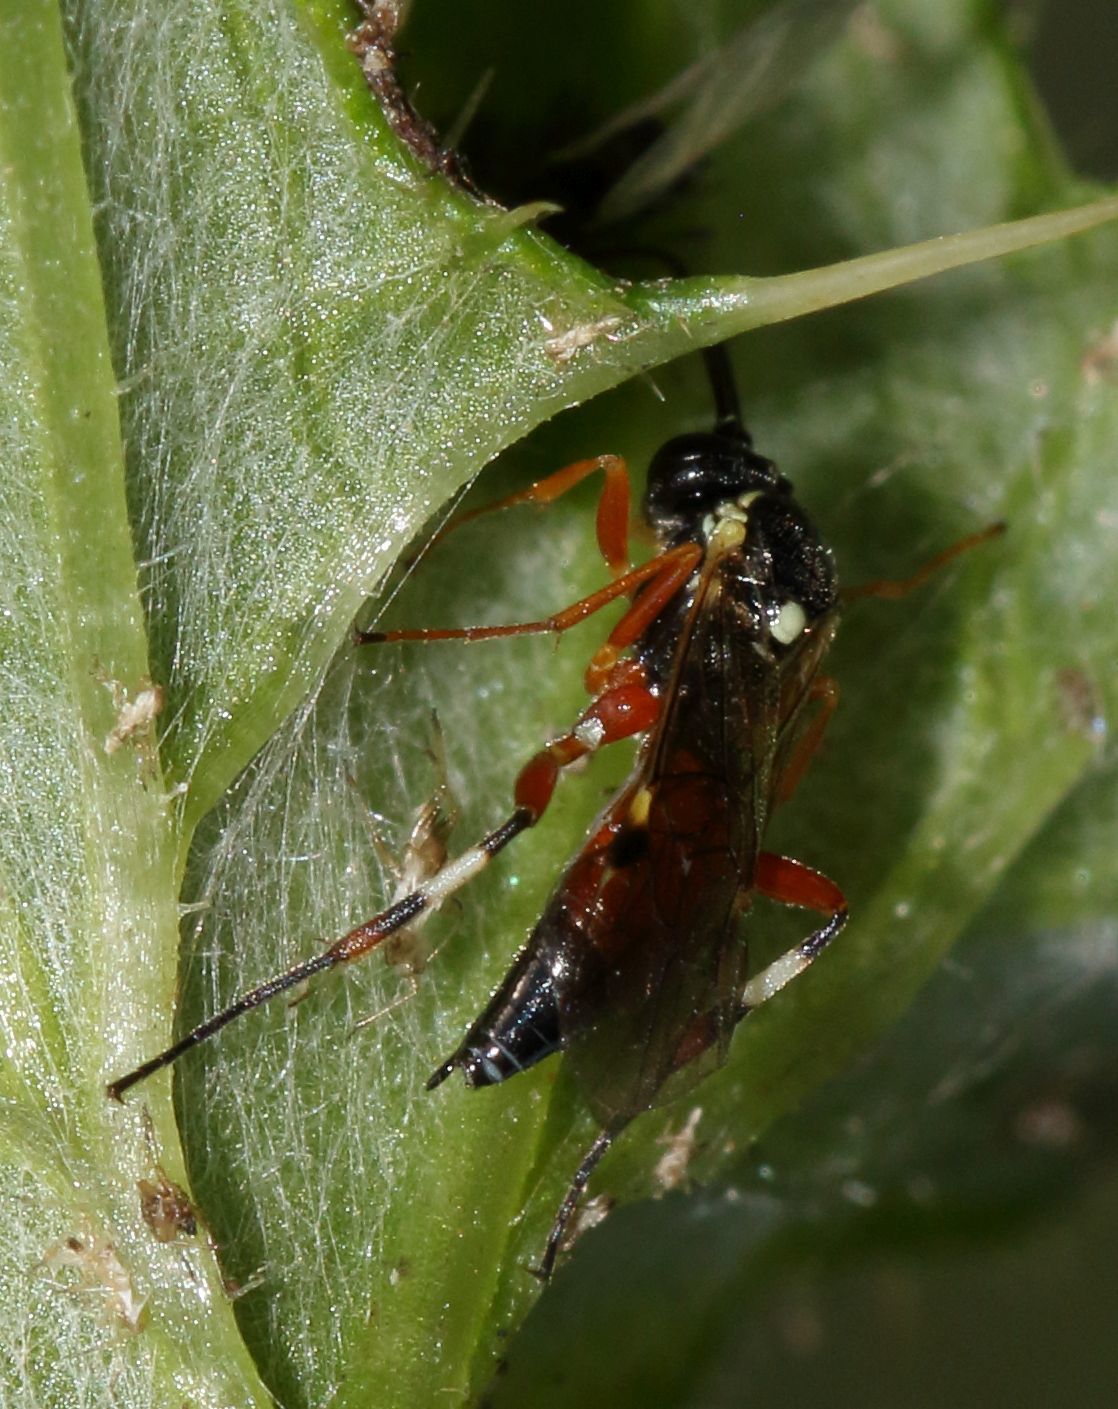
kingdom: Animalia
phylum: Arthropoda
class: Insecta
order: Hymenoptera
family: Ichneumonidae
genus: Diplazon
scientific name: Diplazon laetatorius
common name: Parasitoid wasp
